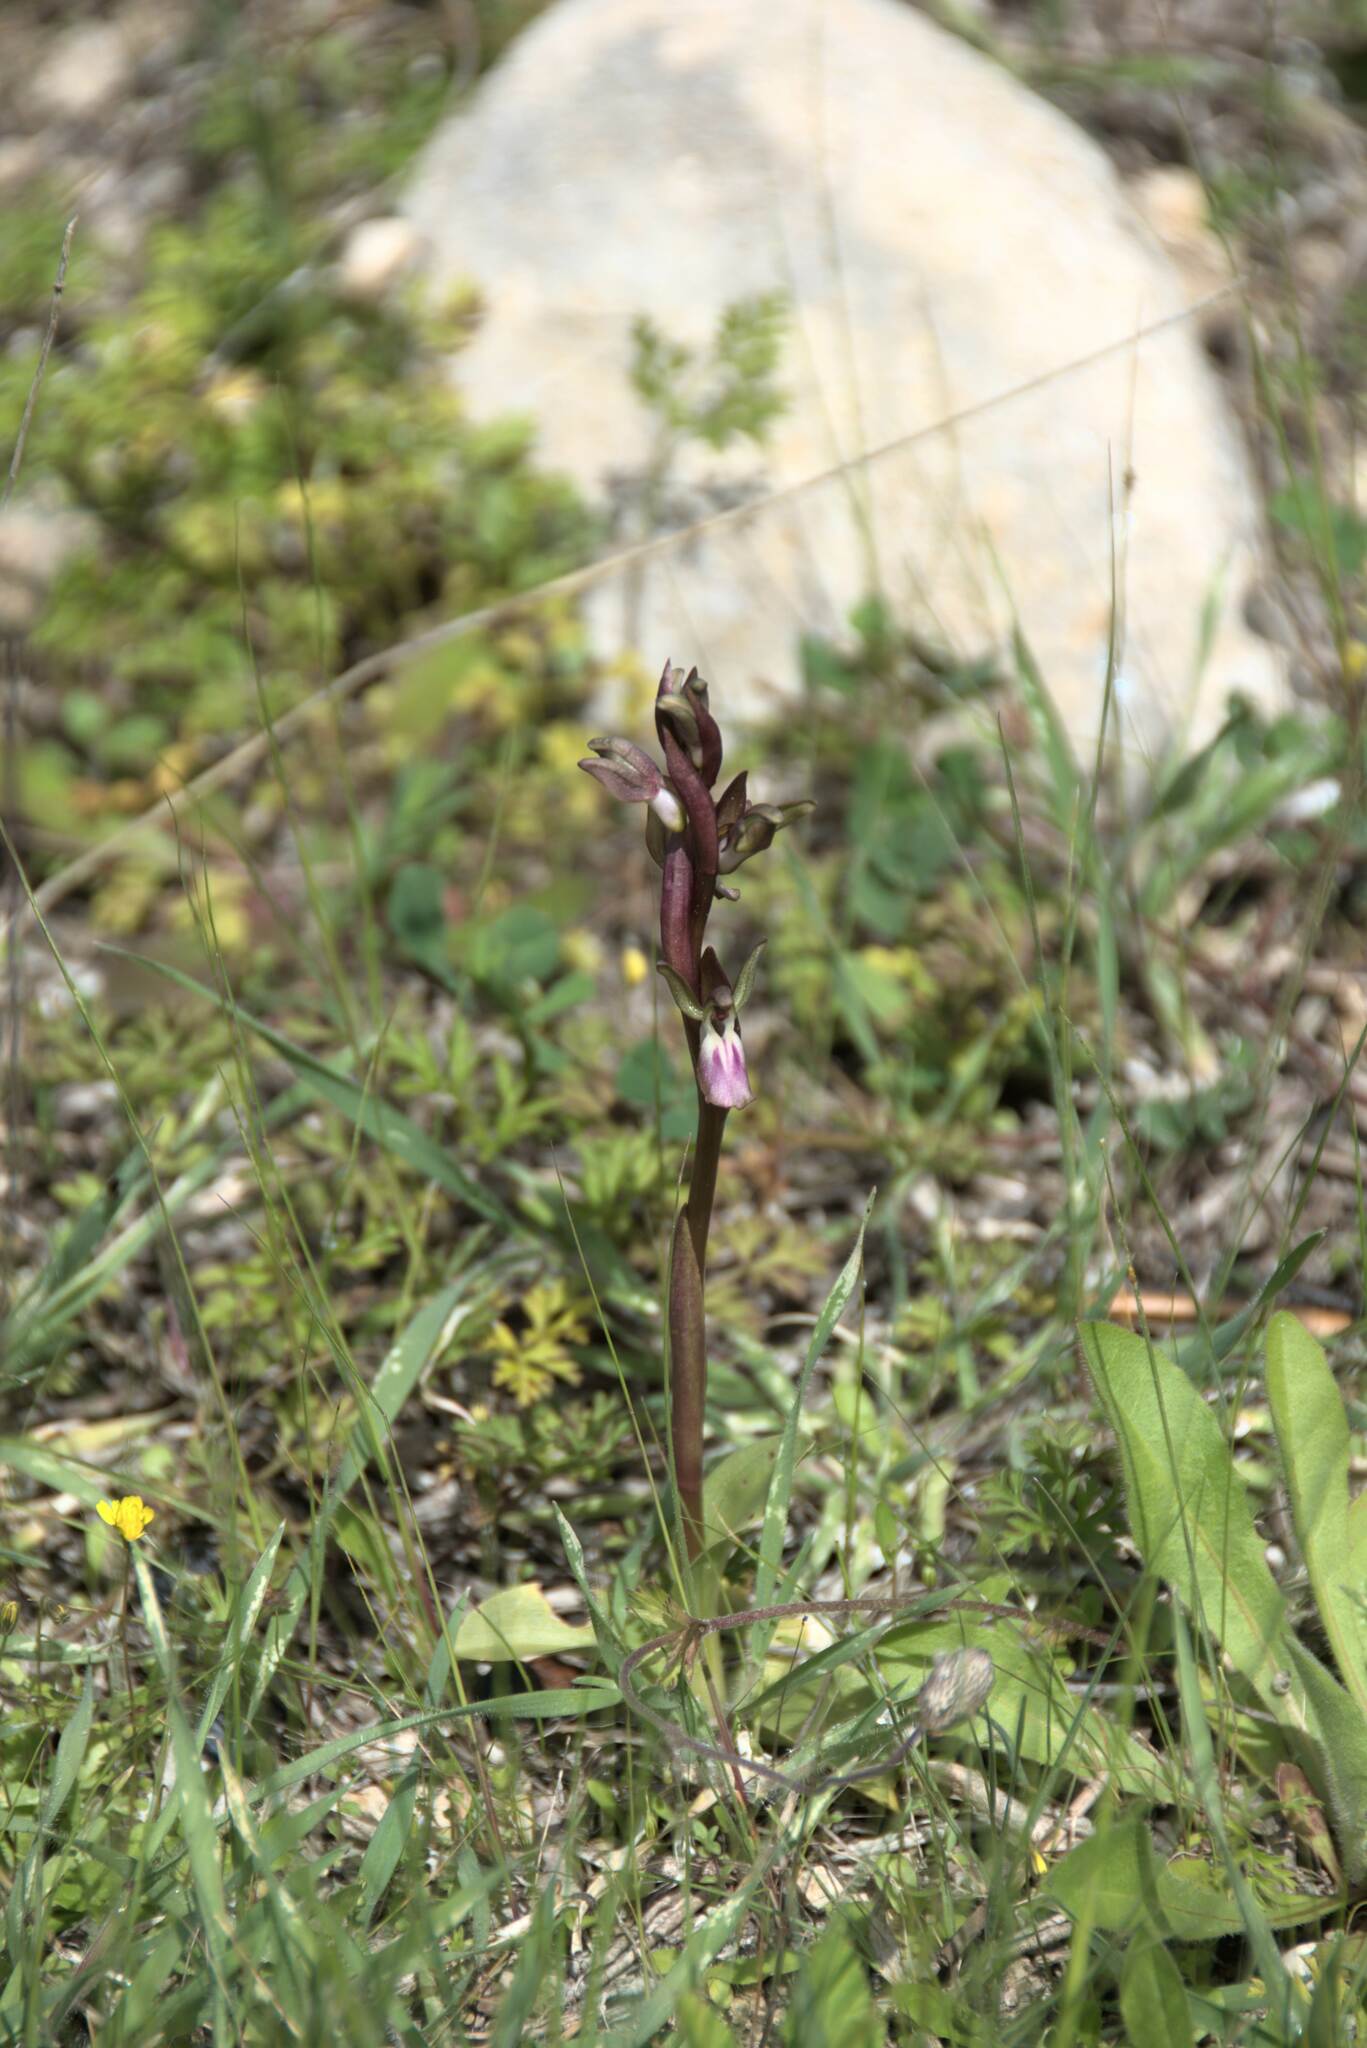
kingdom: Plantae
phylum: Tracheophyta
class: Liliopsida
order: Asparagales
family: Orchidaceae
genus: Anacamptis
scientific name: Anacamptis collina
